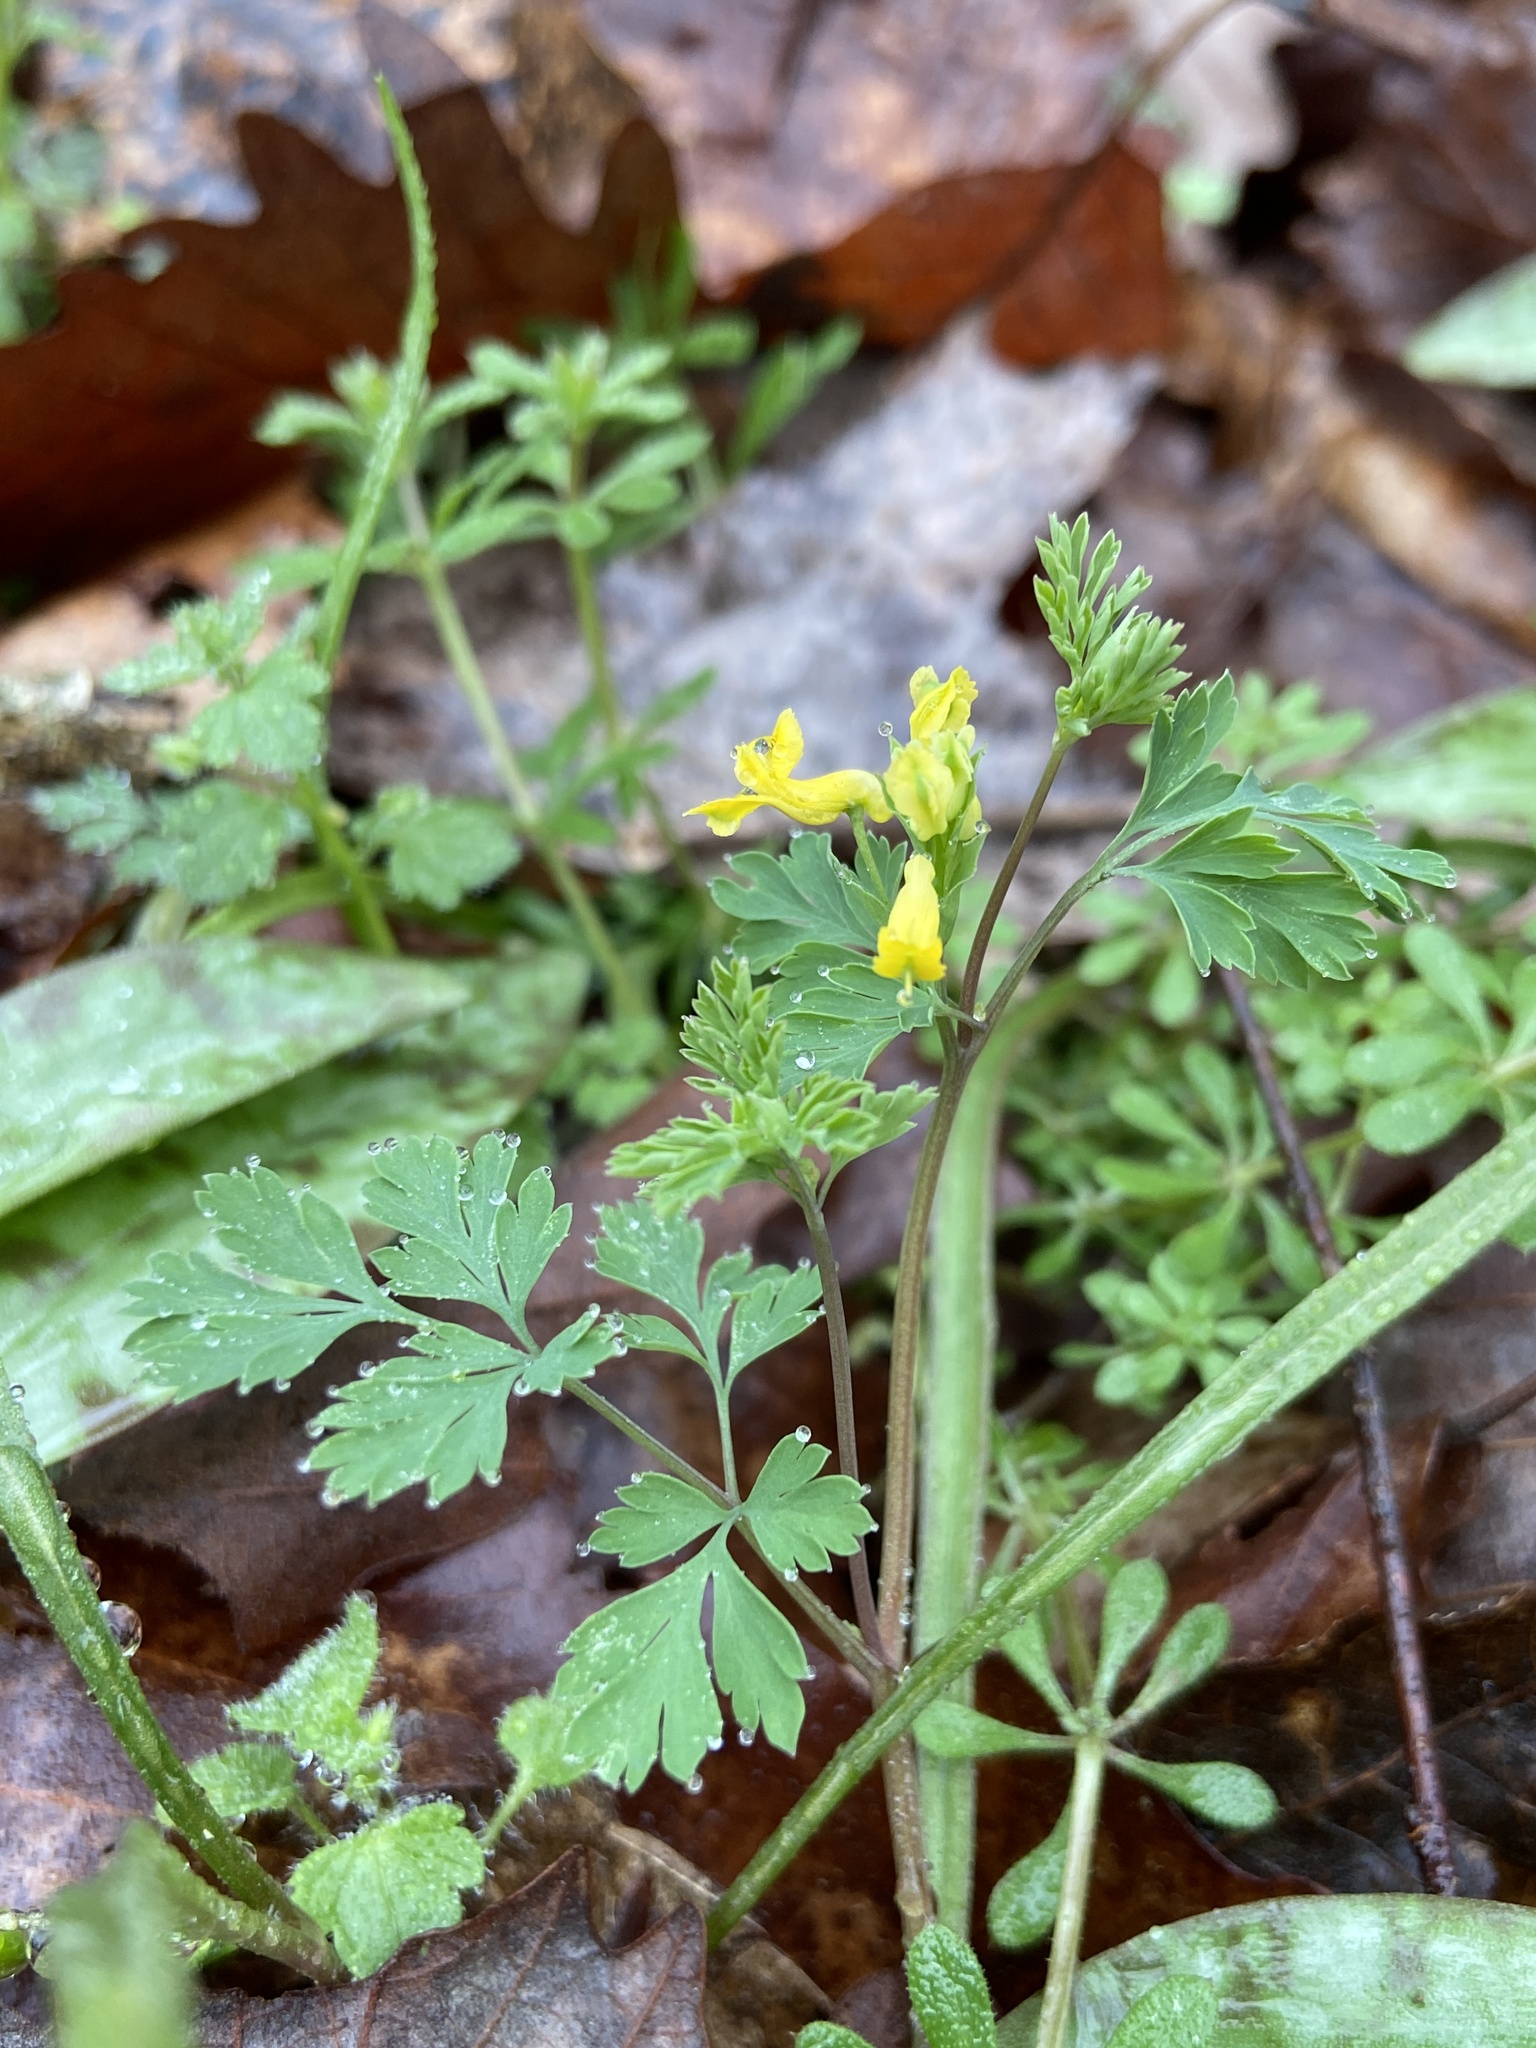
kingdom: Plantae
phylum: Tracheophyta
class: Magnoliopsida
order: Ranunculales
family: Papaveraceae
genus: Corydalis
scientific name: Corydalis flavula
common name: Yellow corydalis
